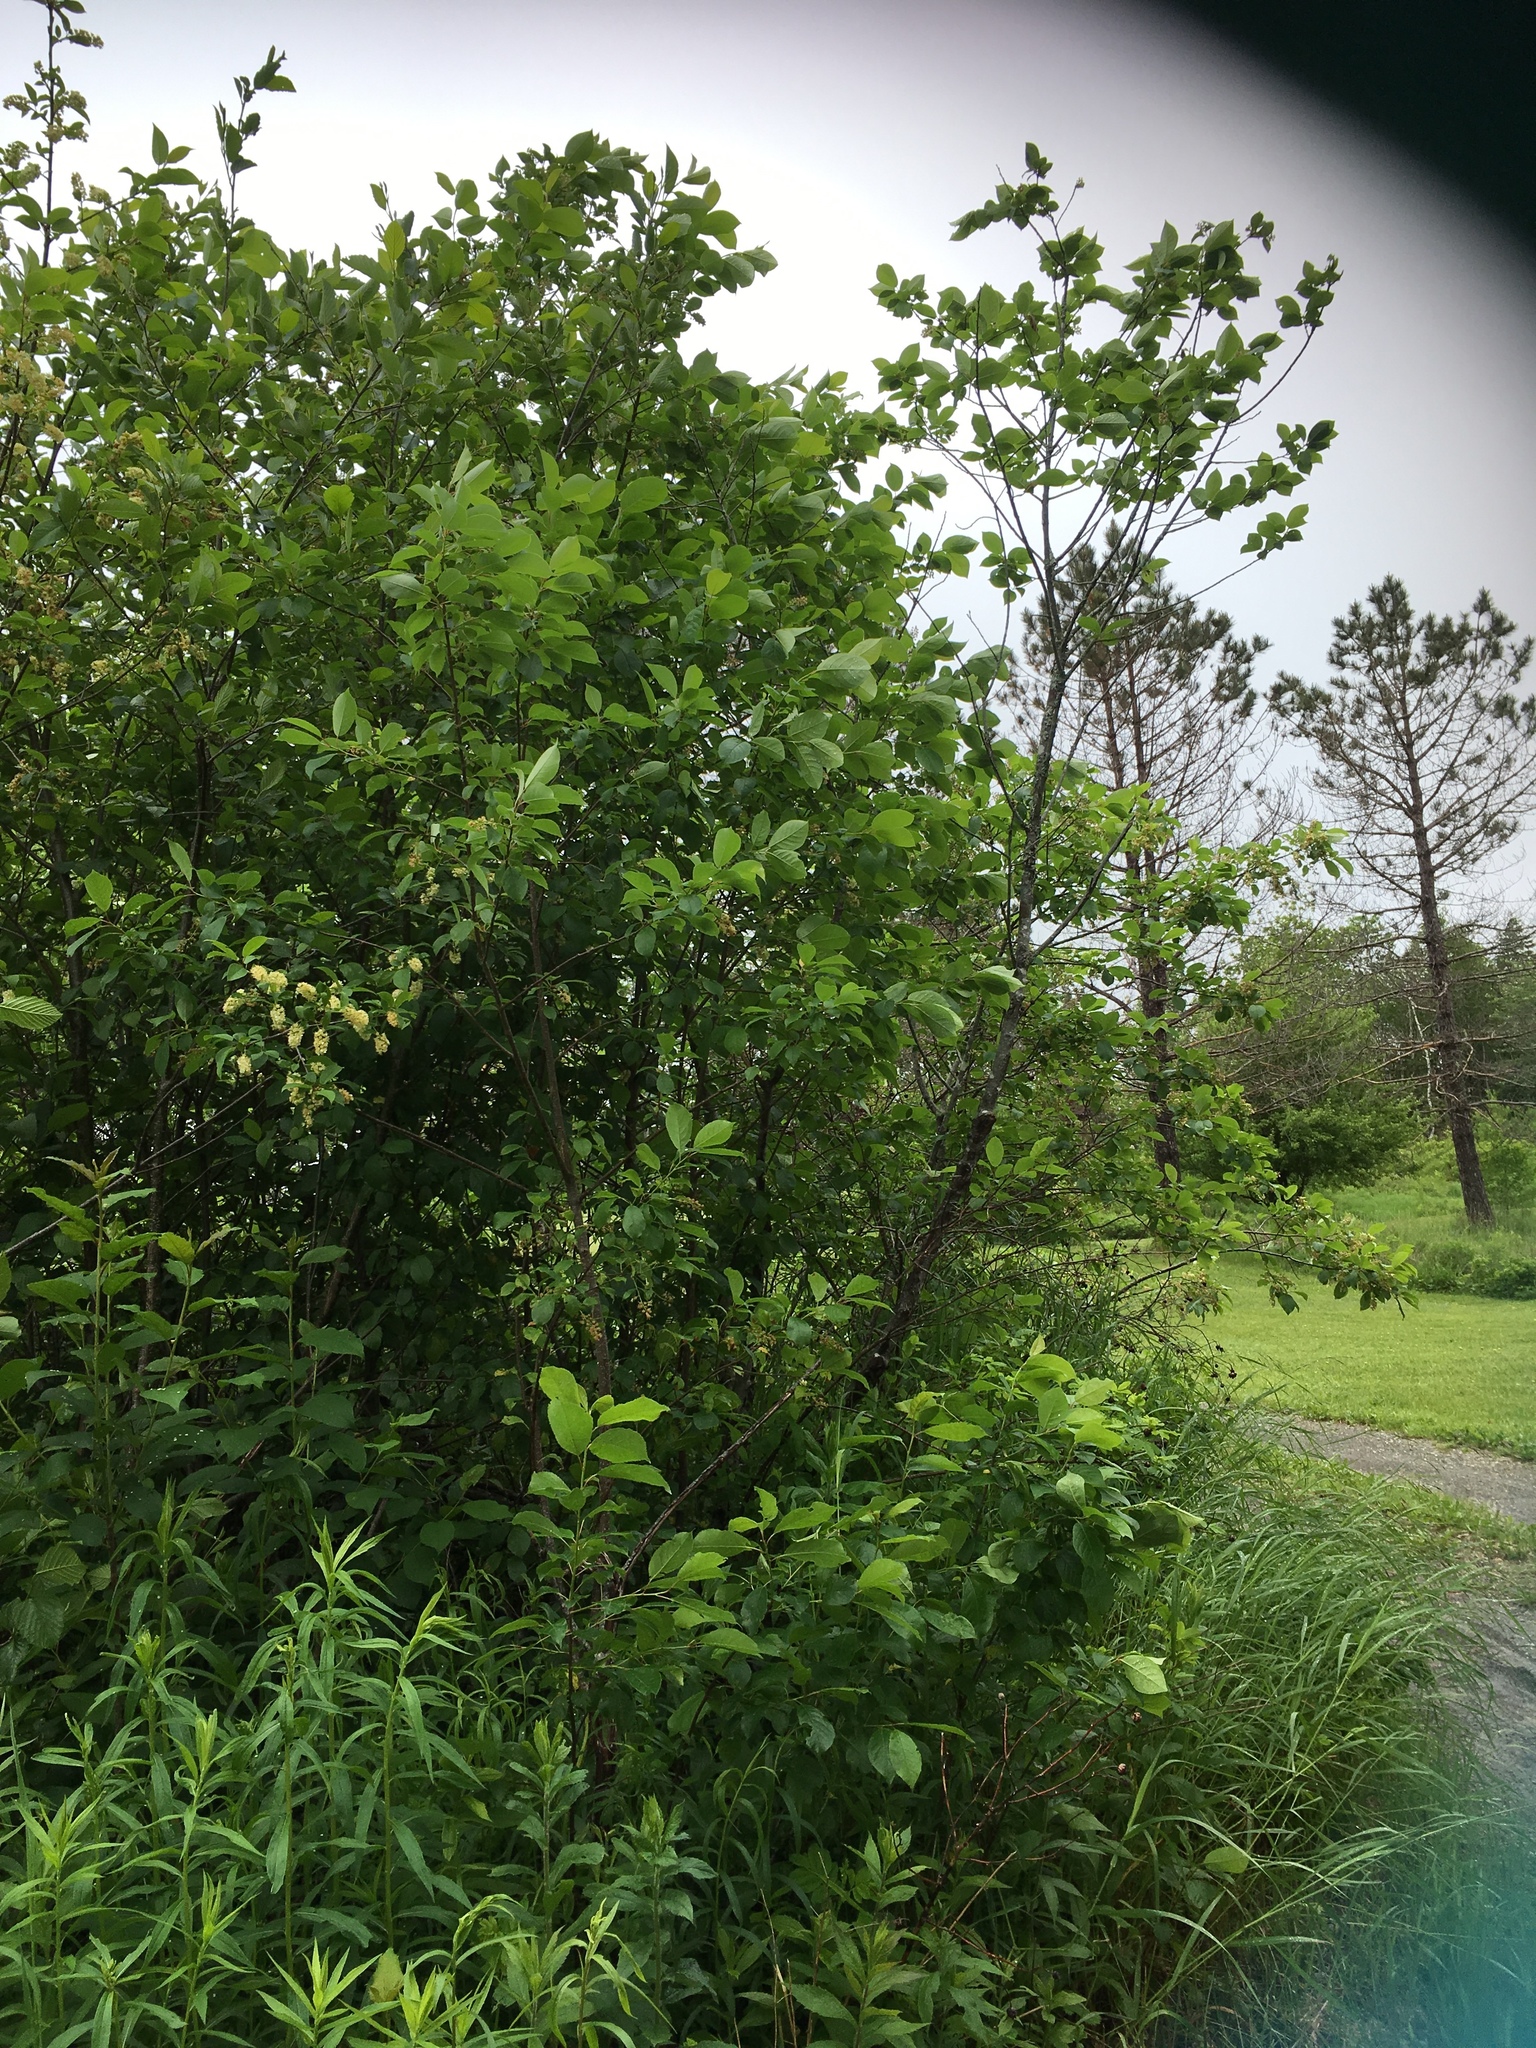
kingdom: Plantae
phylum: Tracheophyta
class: Magnoliopsida
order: Rosales
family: Rosaceae
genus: Prunus
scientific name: Prunus virginiana
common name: Chokecherry
